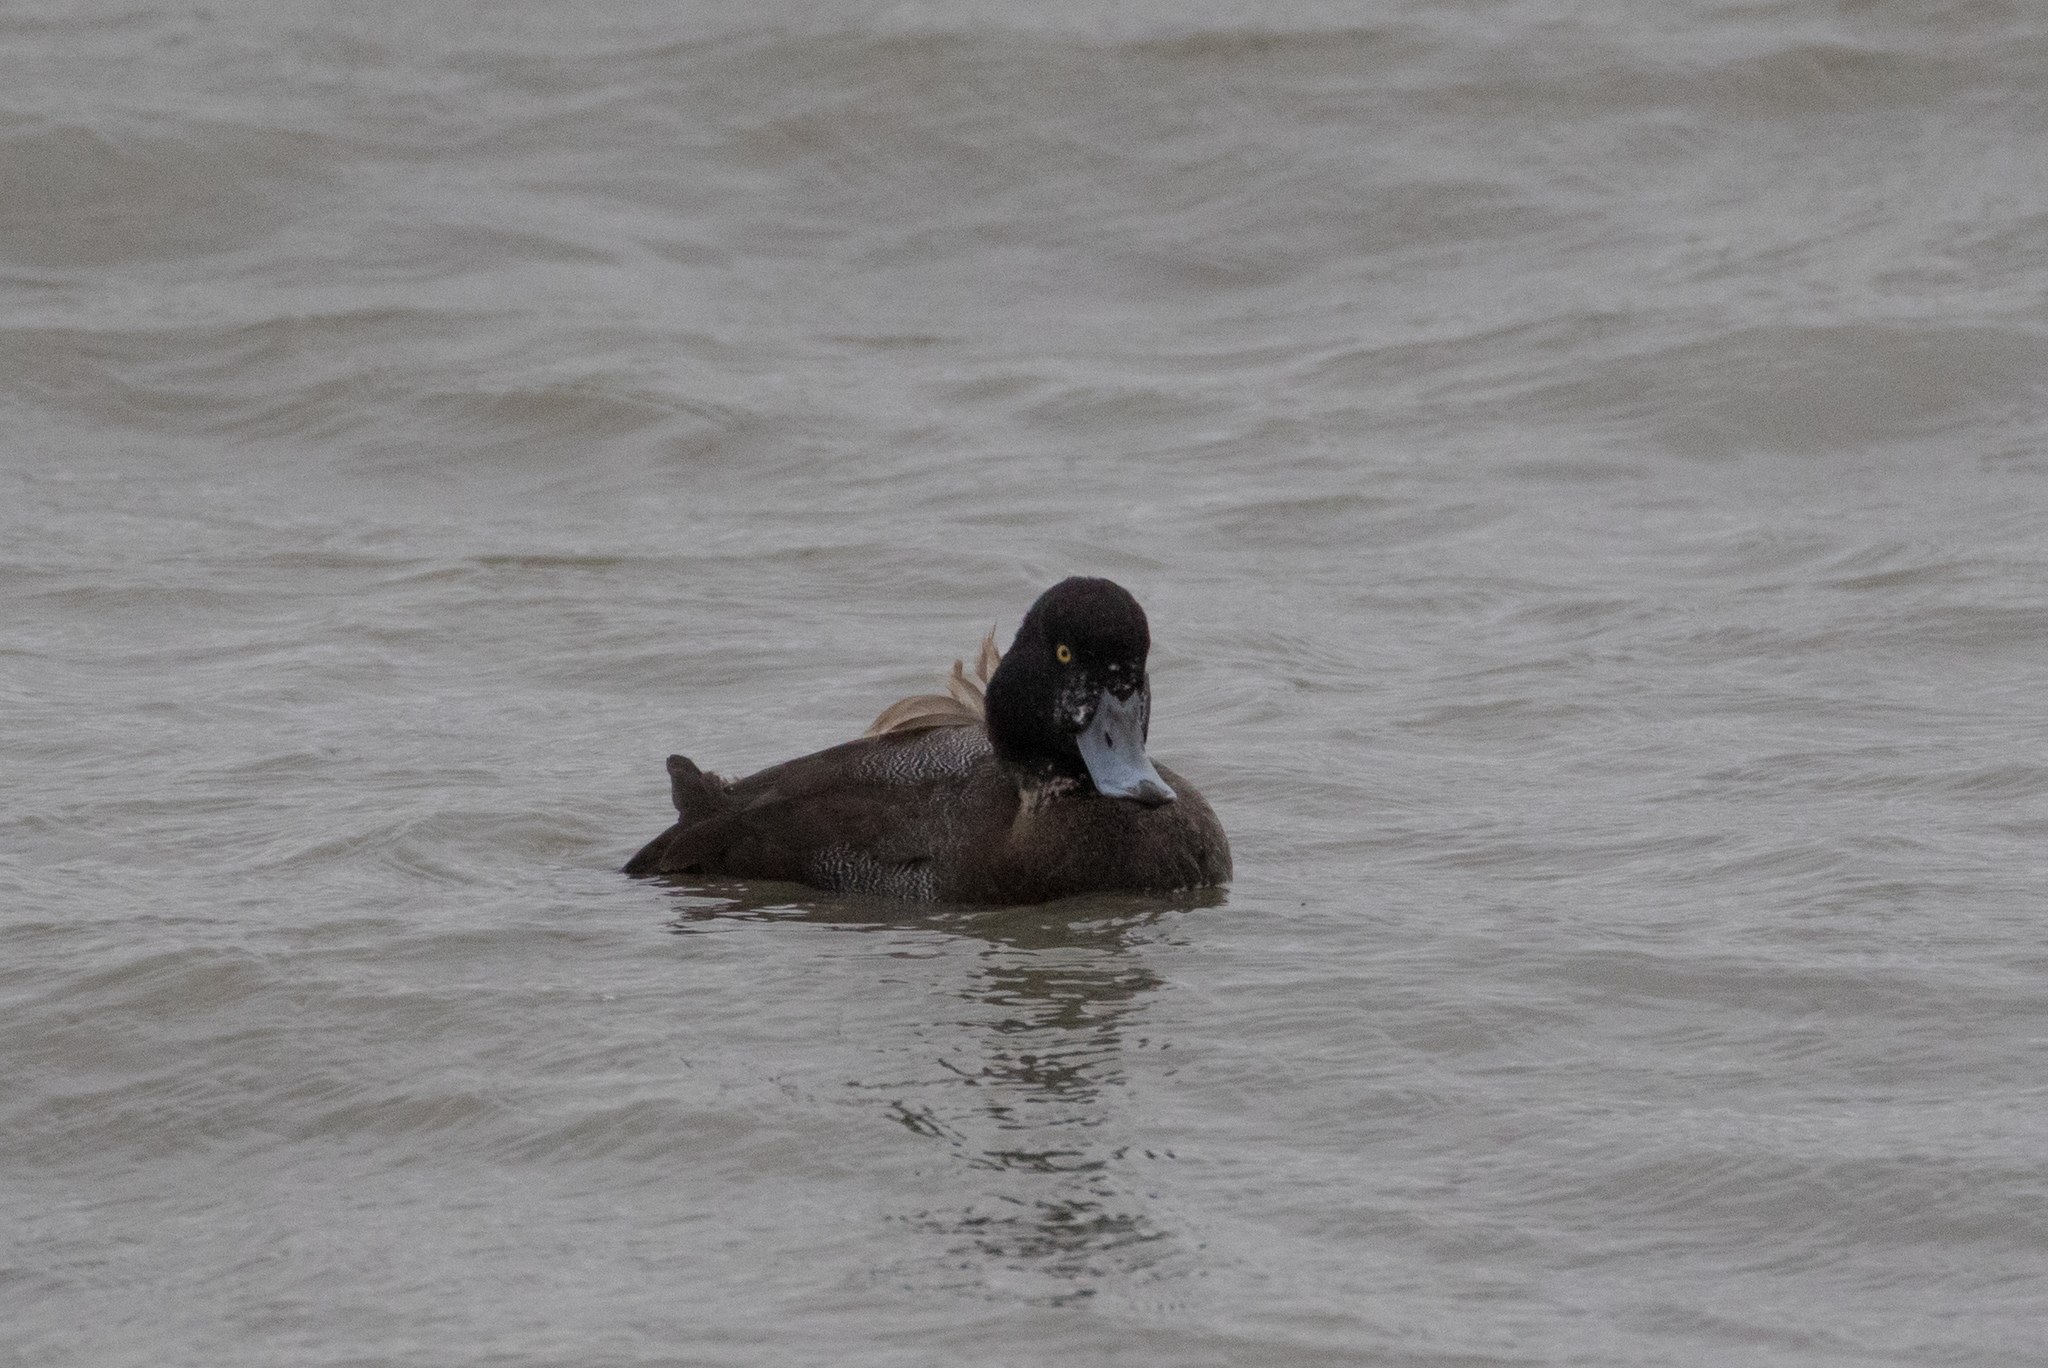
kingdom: Animalia
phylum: Chordata
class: Aves
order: Anseriformes
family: Anatidae
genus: Aythya
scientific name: Aythya marila
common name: Greater scaup
